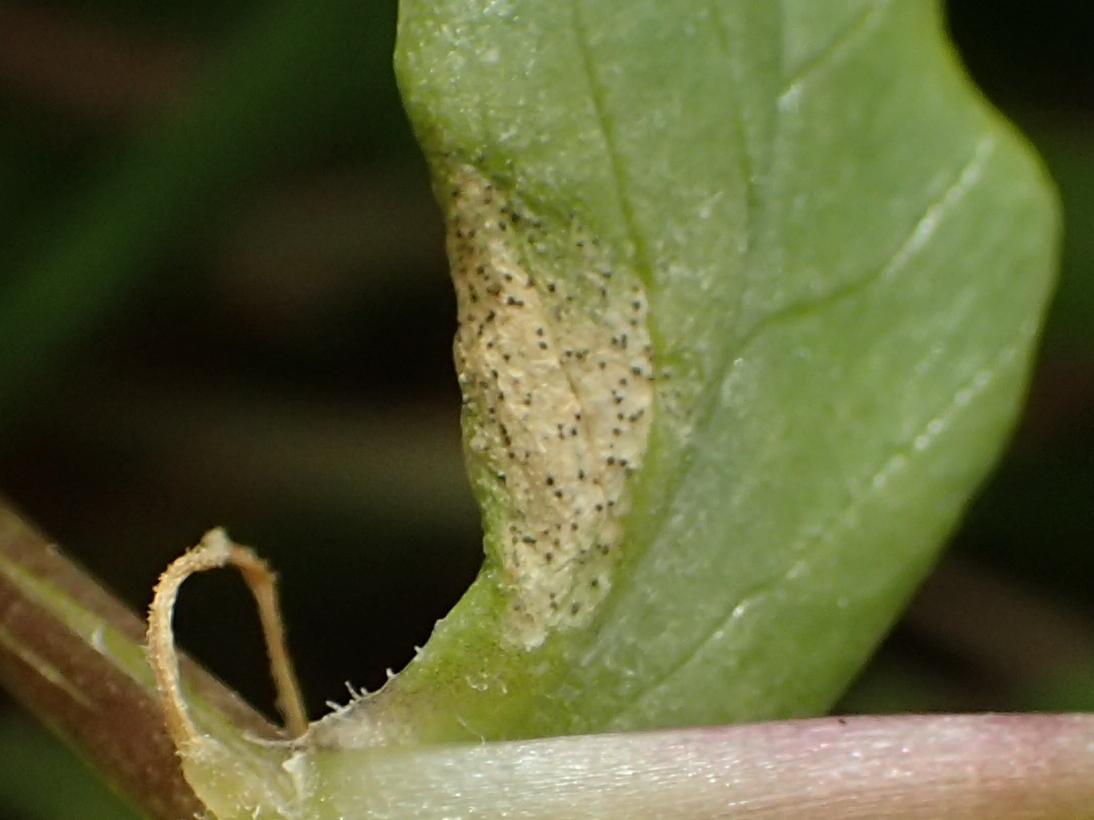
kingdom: Fungi
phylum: Ascomycota
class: Dothideomycetes
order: Mycosphaerellales
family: Mycosphaerellaceae
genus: Septoria
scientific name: Septoria stellariae
